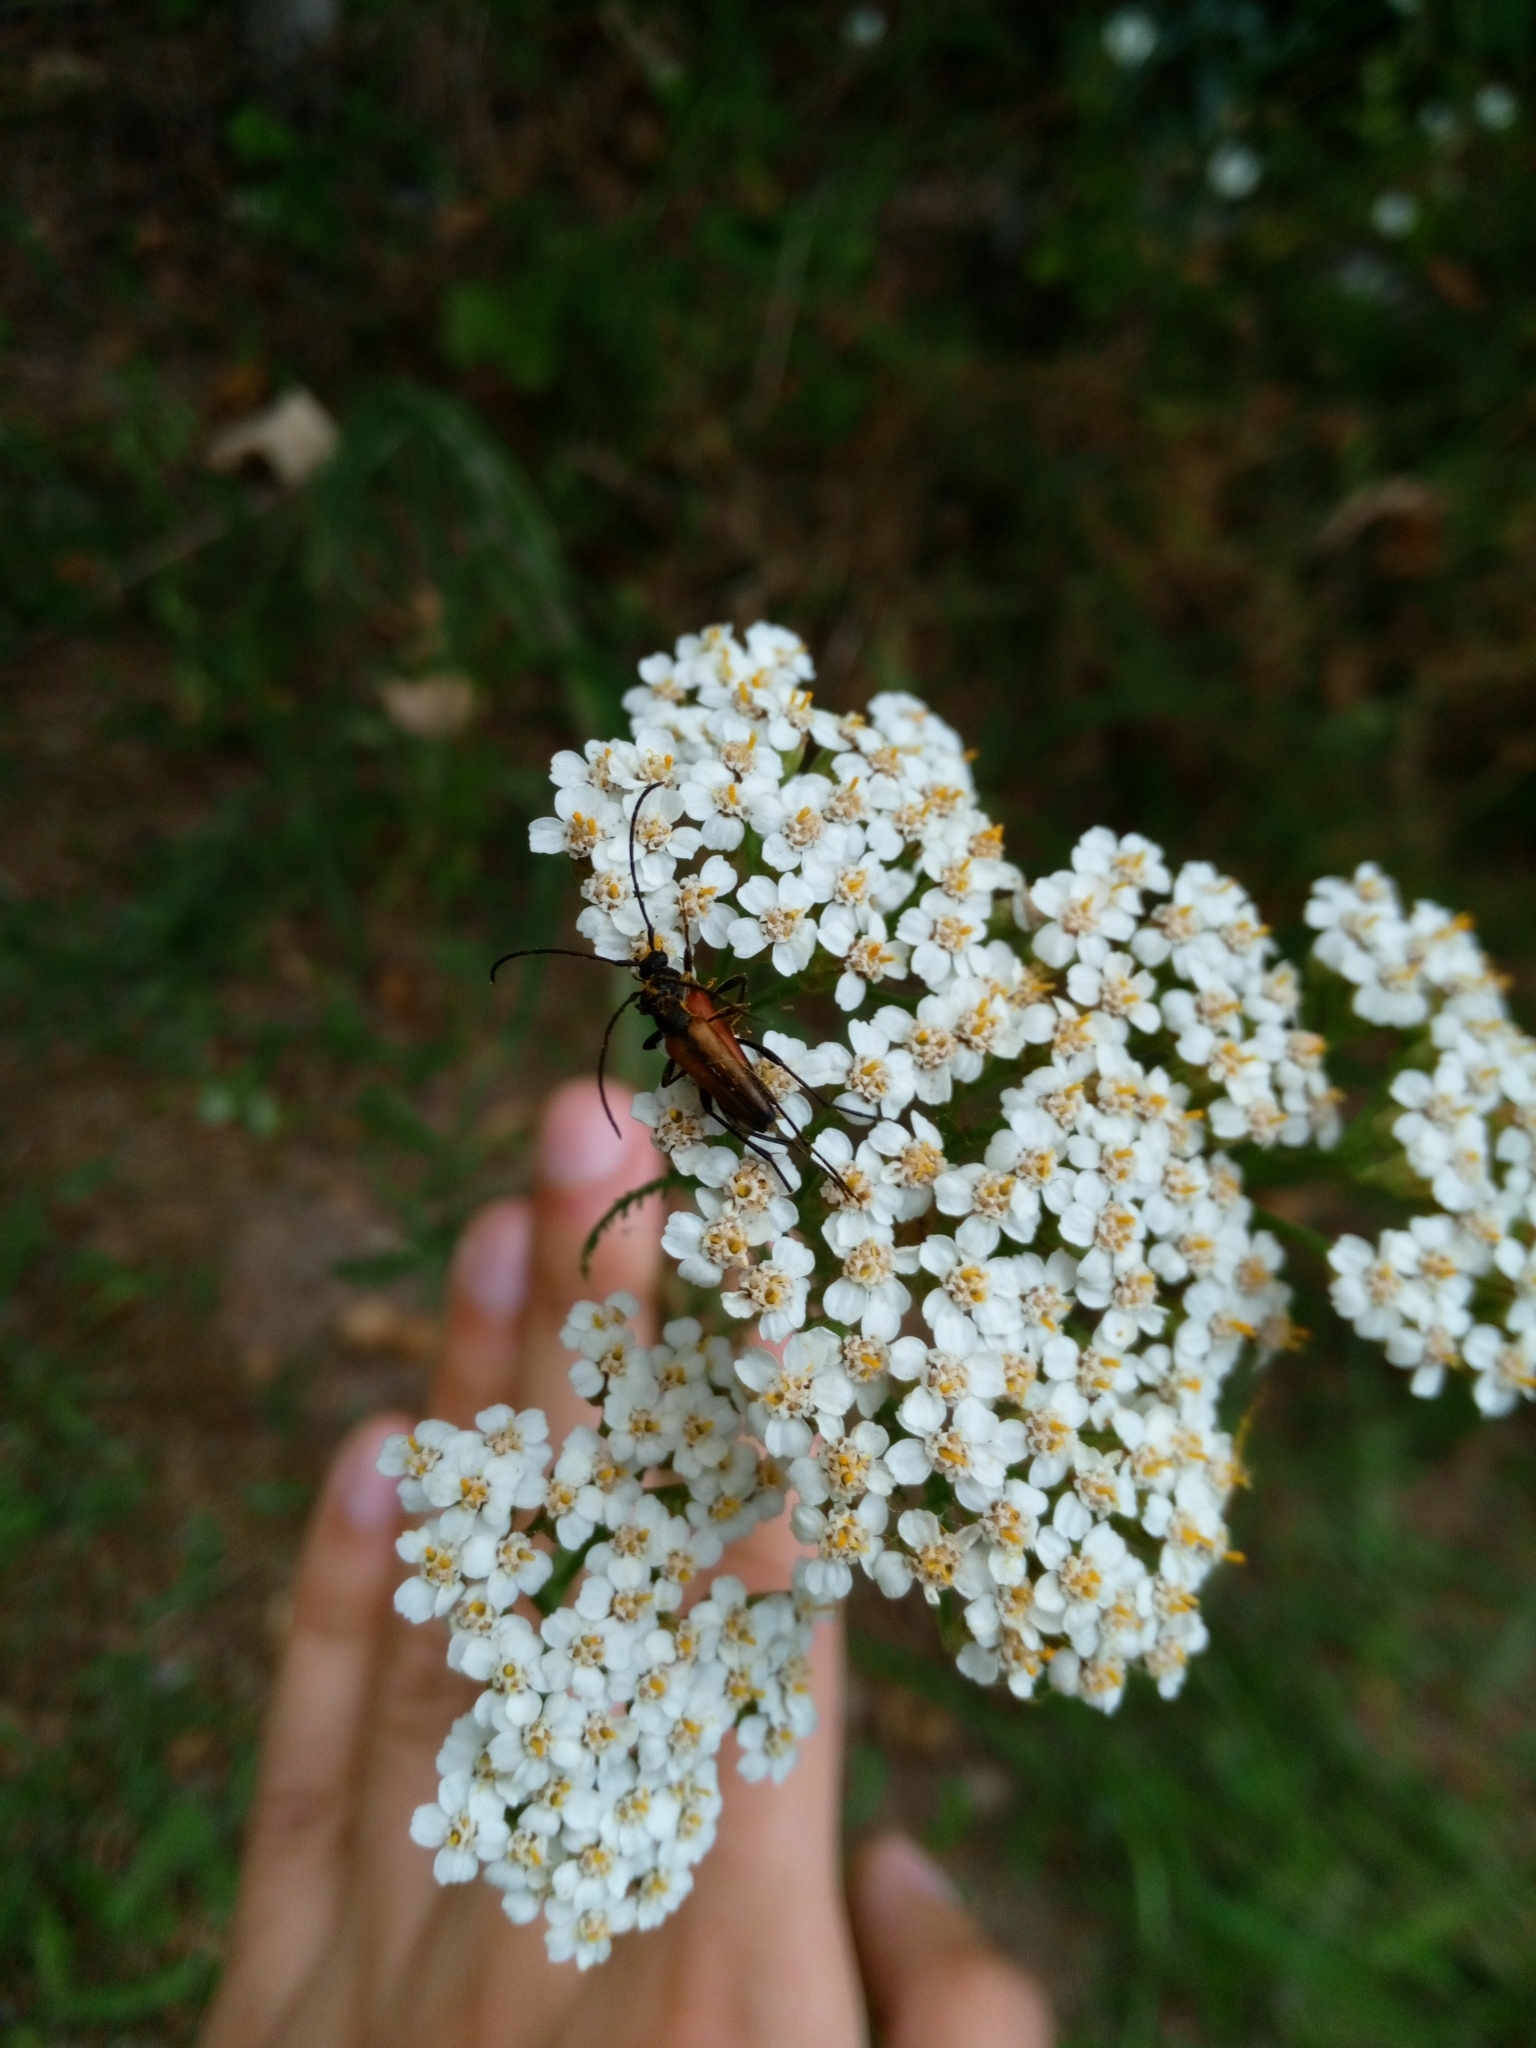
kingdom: Plantae
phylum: Tracheophyta
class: Magnoliopsida
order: Asterales
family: Asteraceae
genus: Achillea
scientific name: Achillea millefolium
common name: Yarrow
